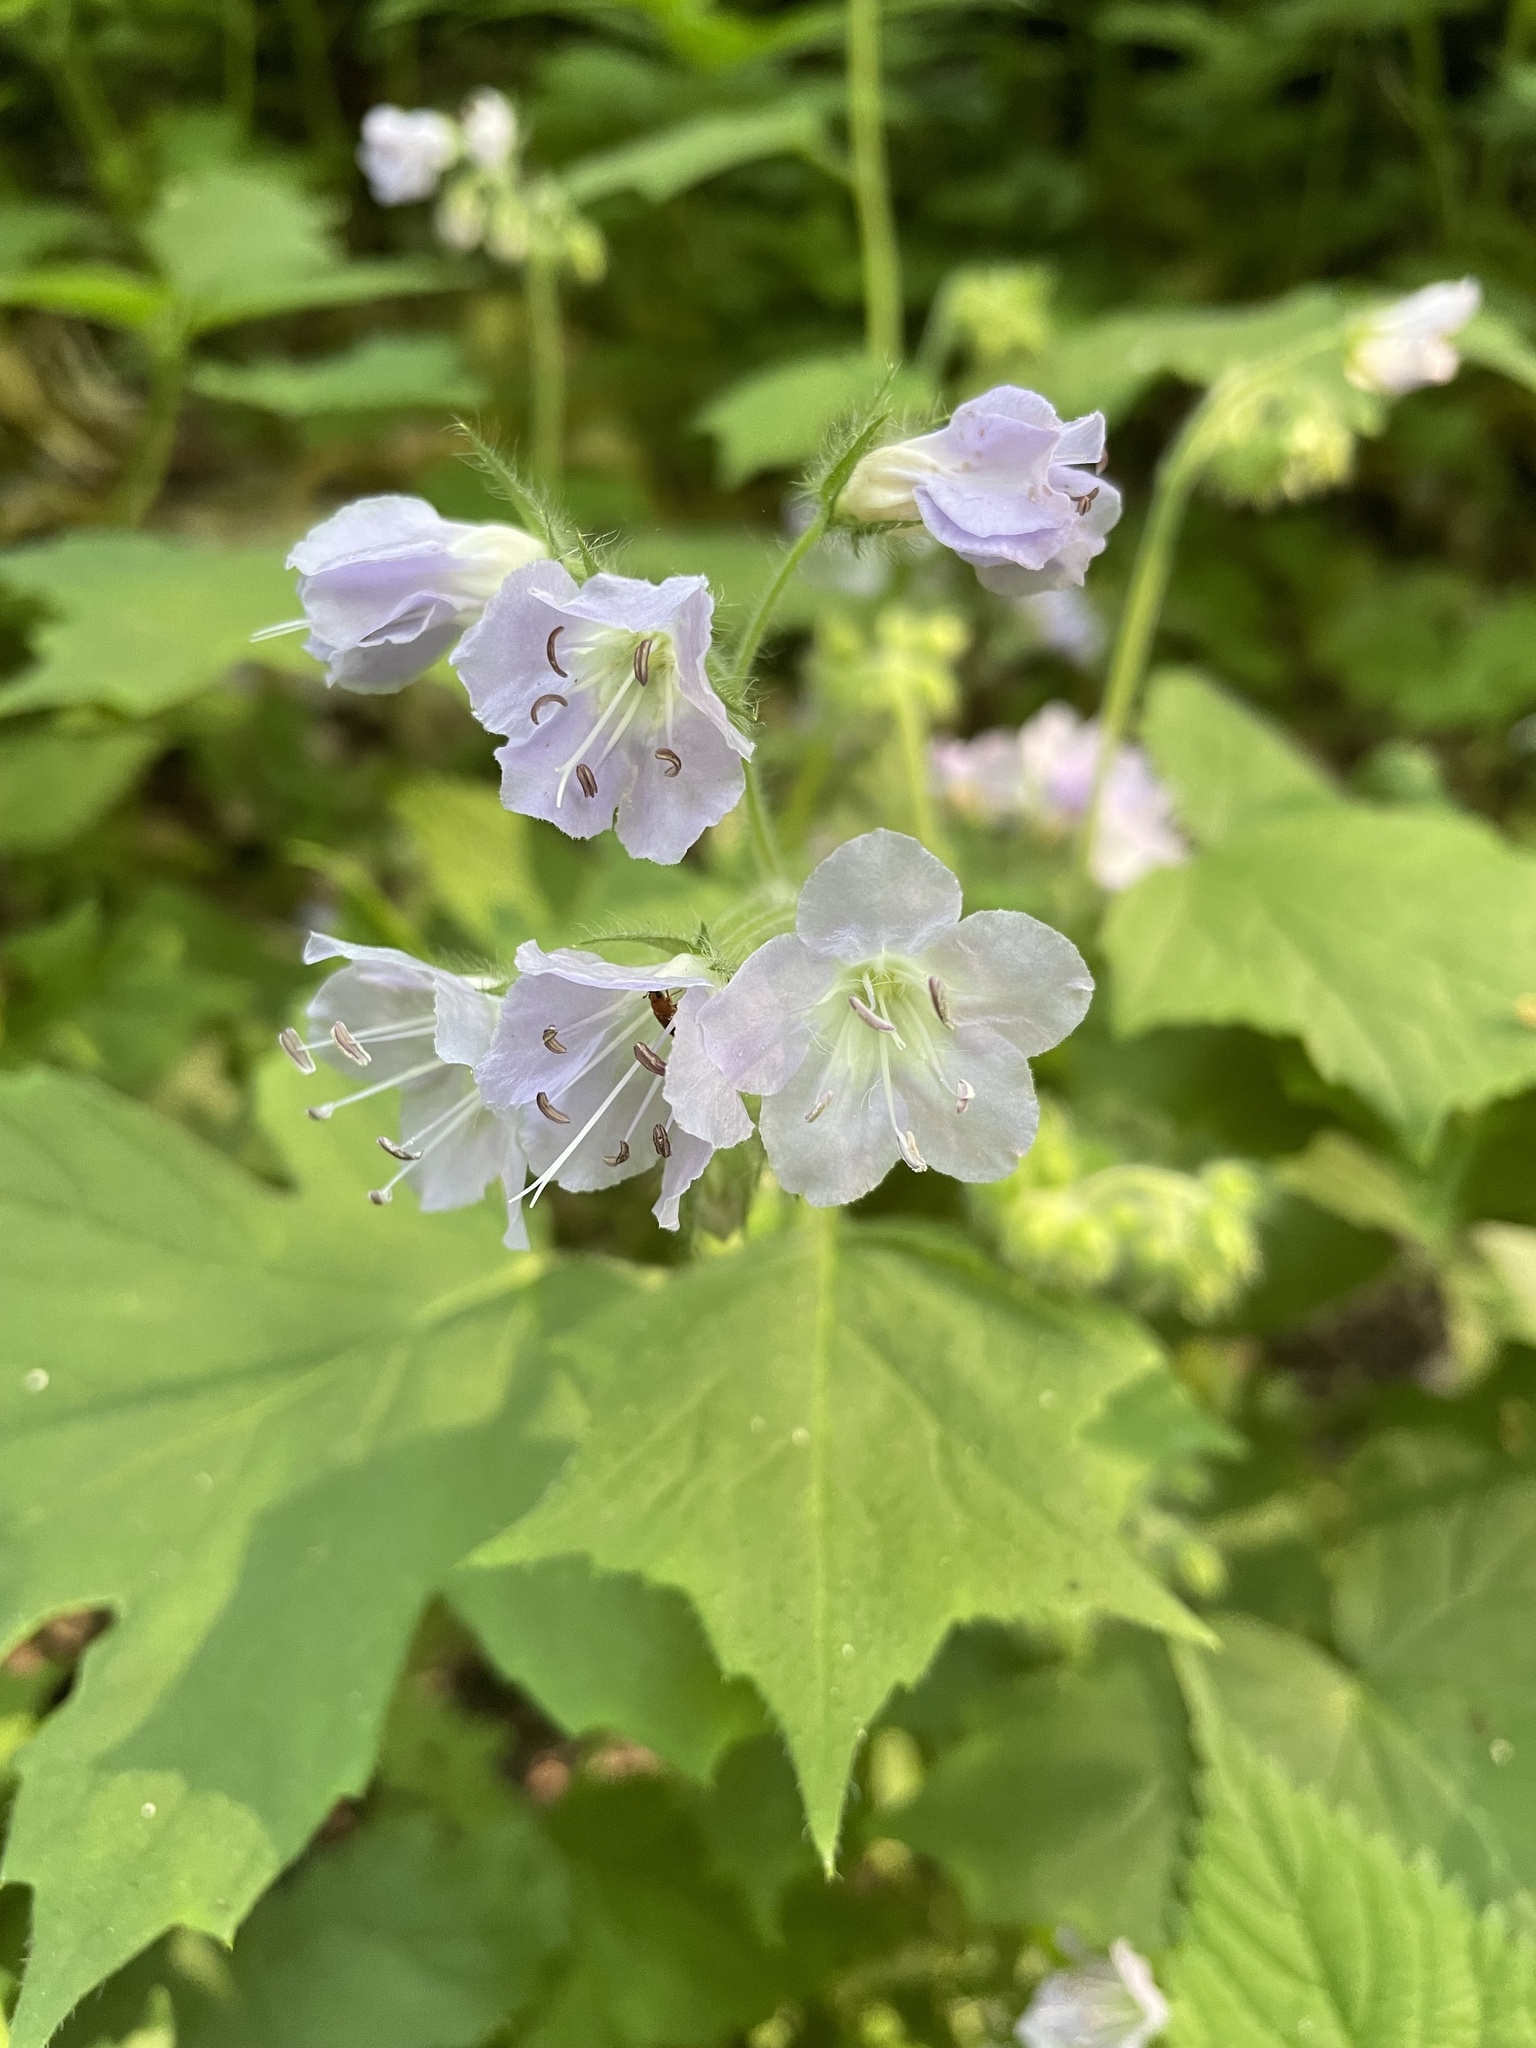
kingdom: Plantae
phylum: Tracheophyta
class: Magnoliopsida
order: Boraginales
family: Hydrophyllaceae
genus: Hydrophyllum
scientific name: Hydrophyllum appendiculatum
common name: Appendaged waterleaf
